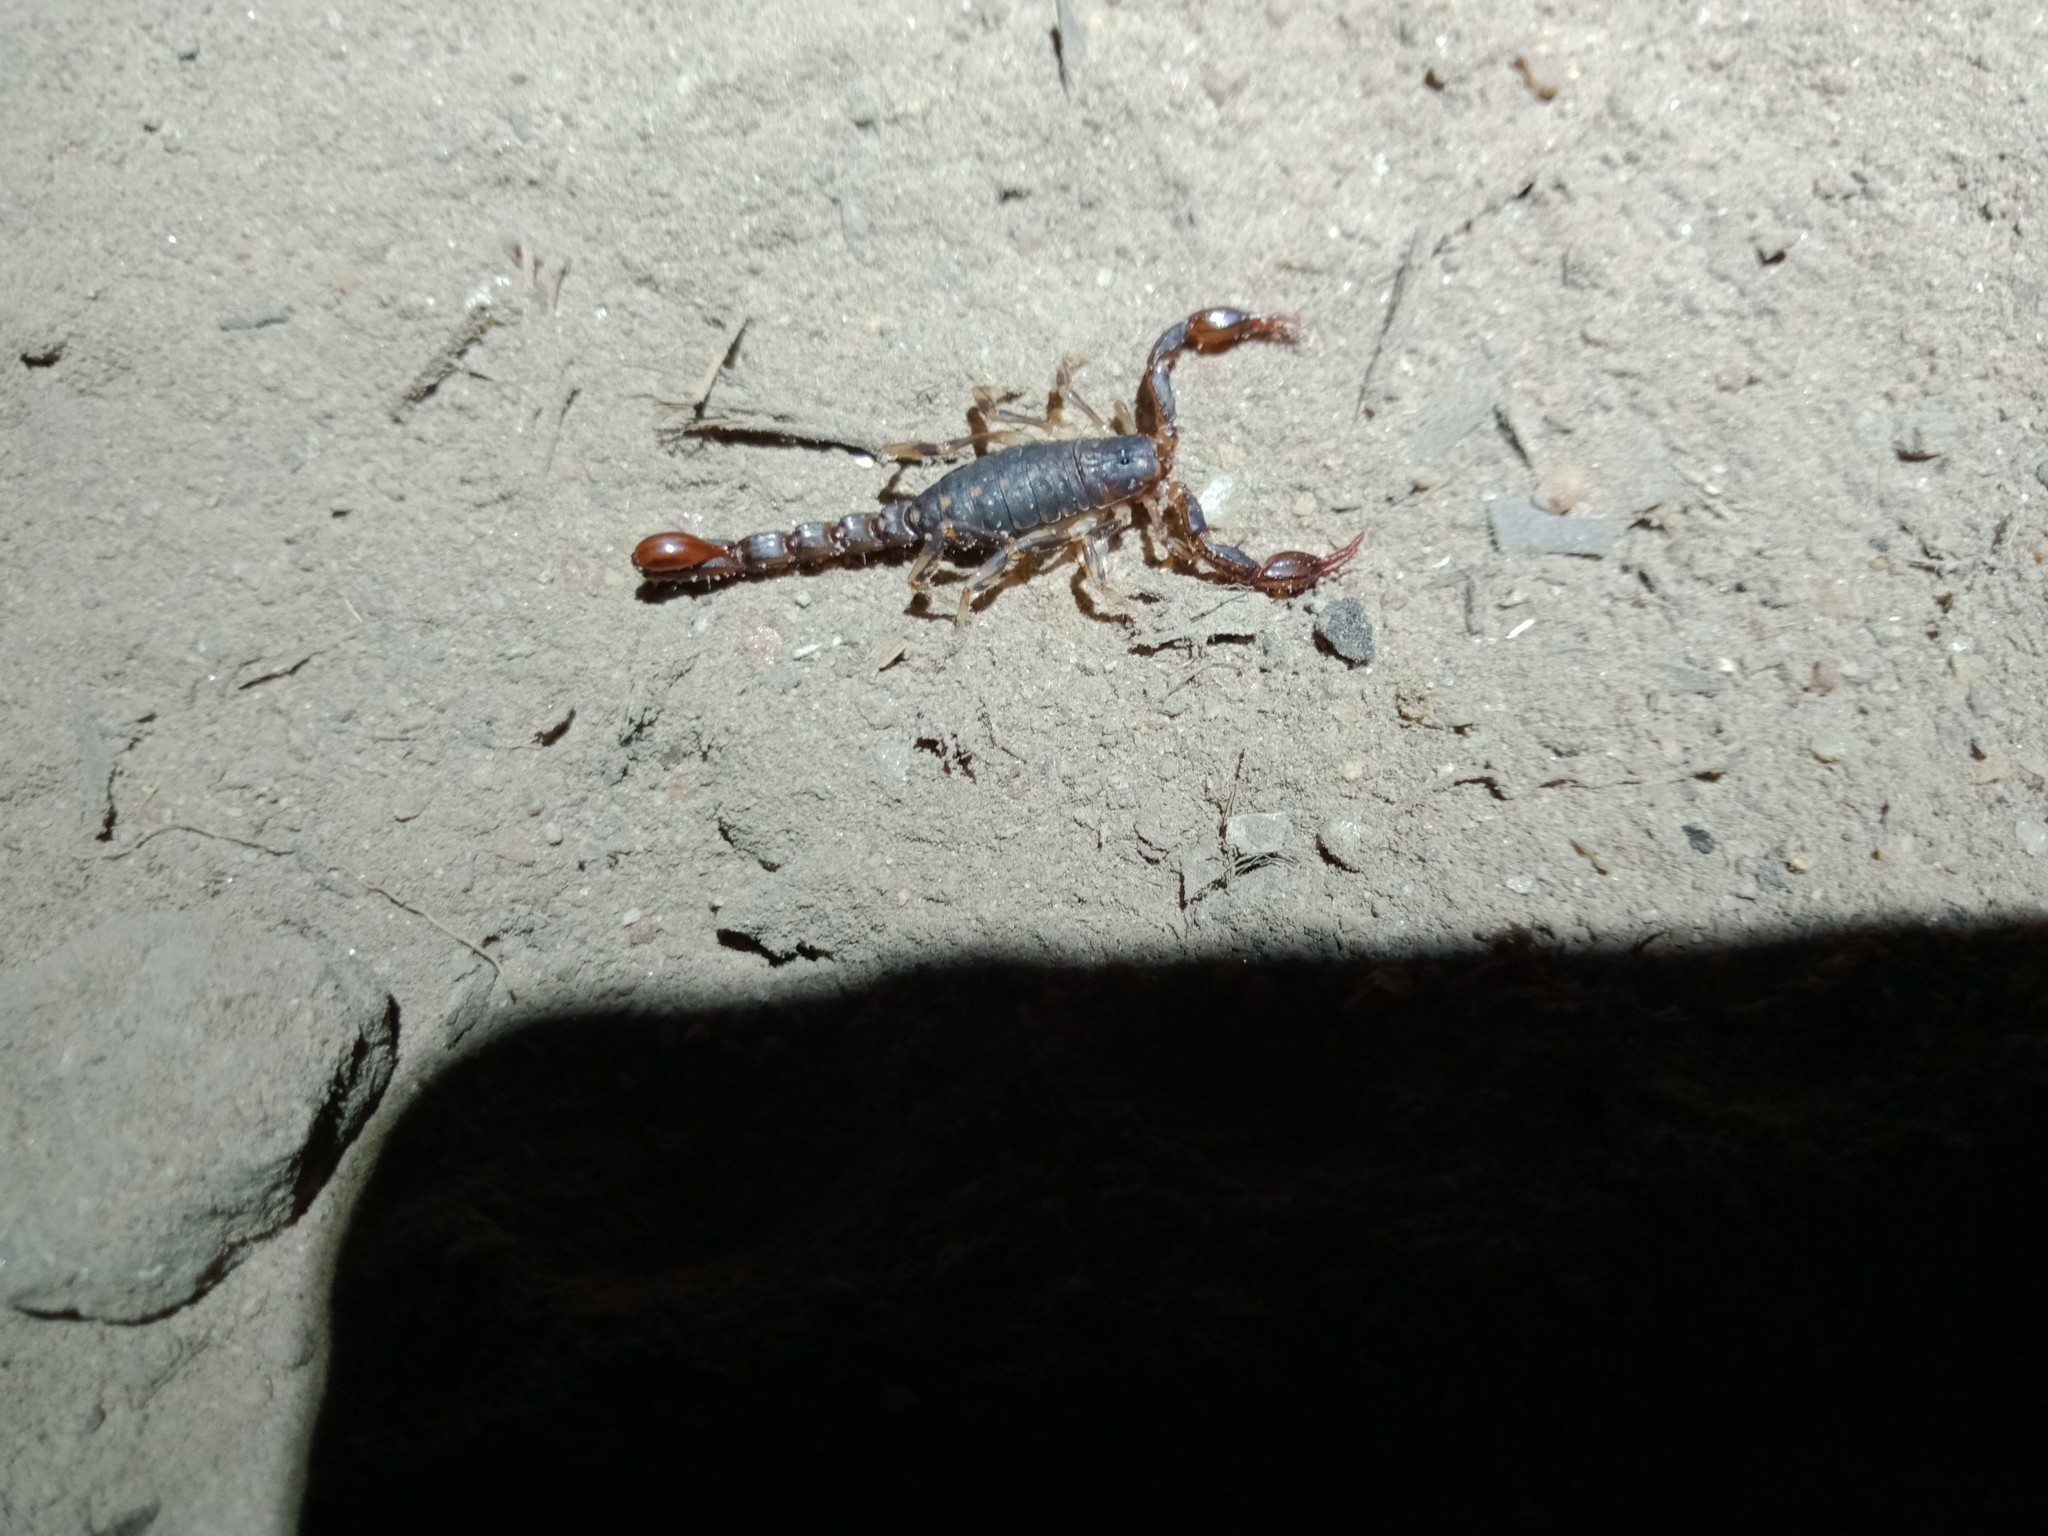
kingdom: Animalia
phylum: Arthropoda
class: Arachnida
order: Scorpiones
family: Bothriuridae
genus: Cercophonius
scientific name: Cercophonius squama
